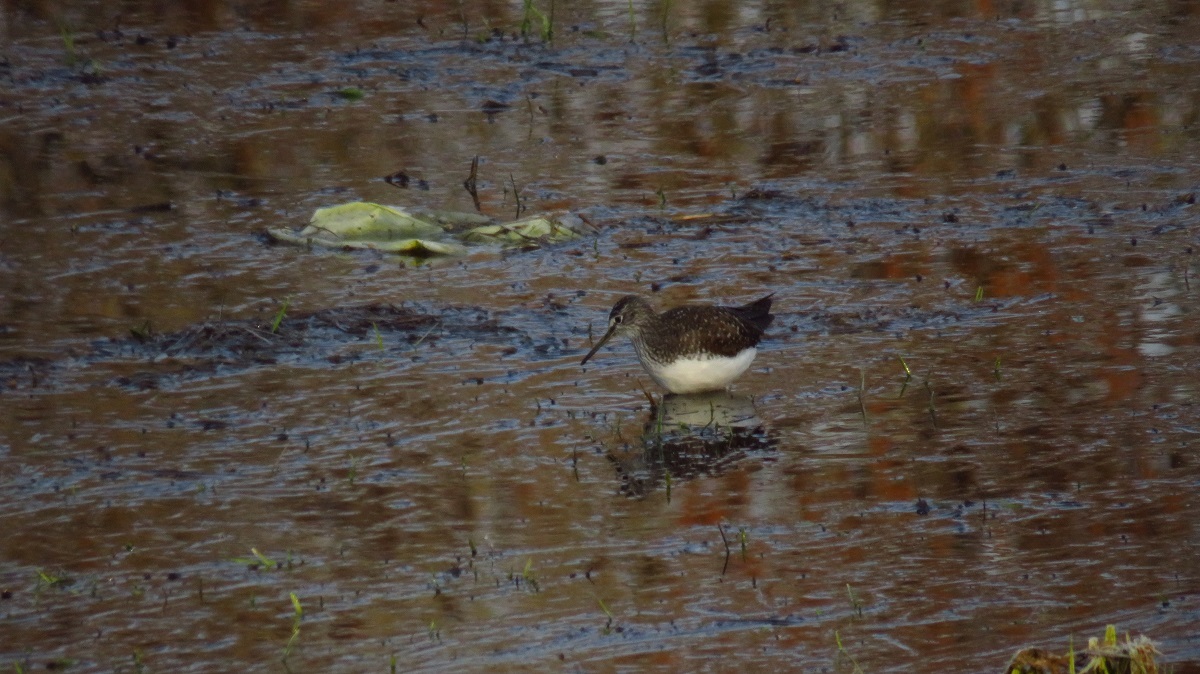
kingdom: Animalia
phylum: Chordata
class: Aves
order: Charadriiformes
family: Scolopacidae
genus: Tringa
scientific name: Tringa ochropus
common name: Green sandpiper
